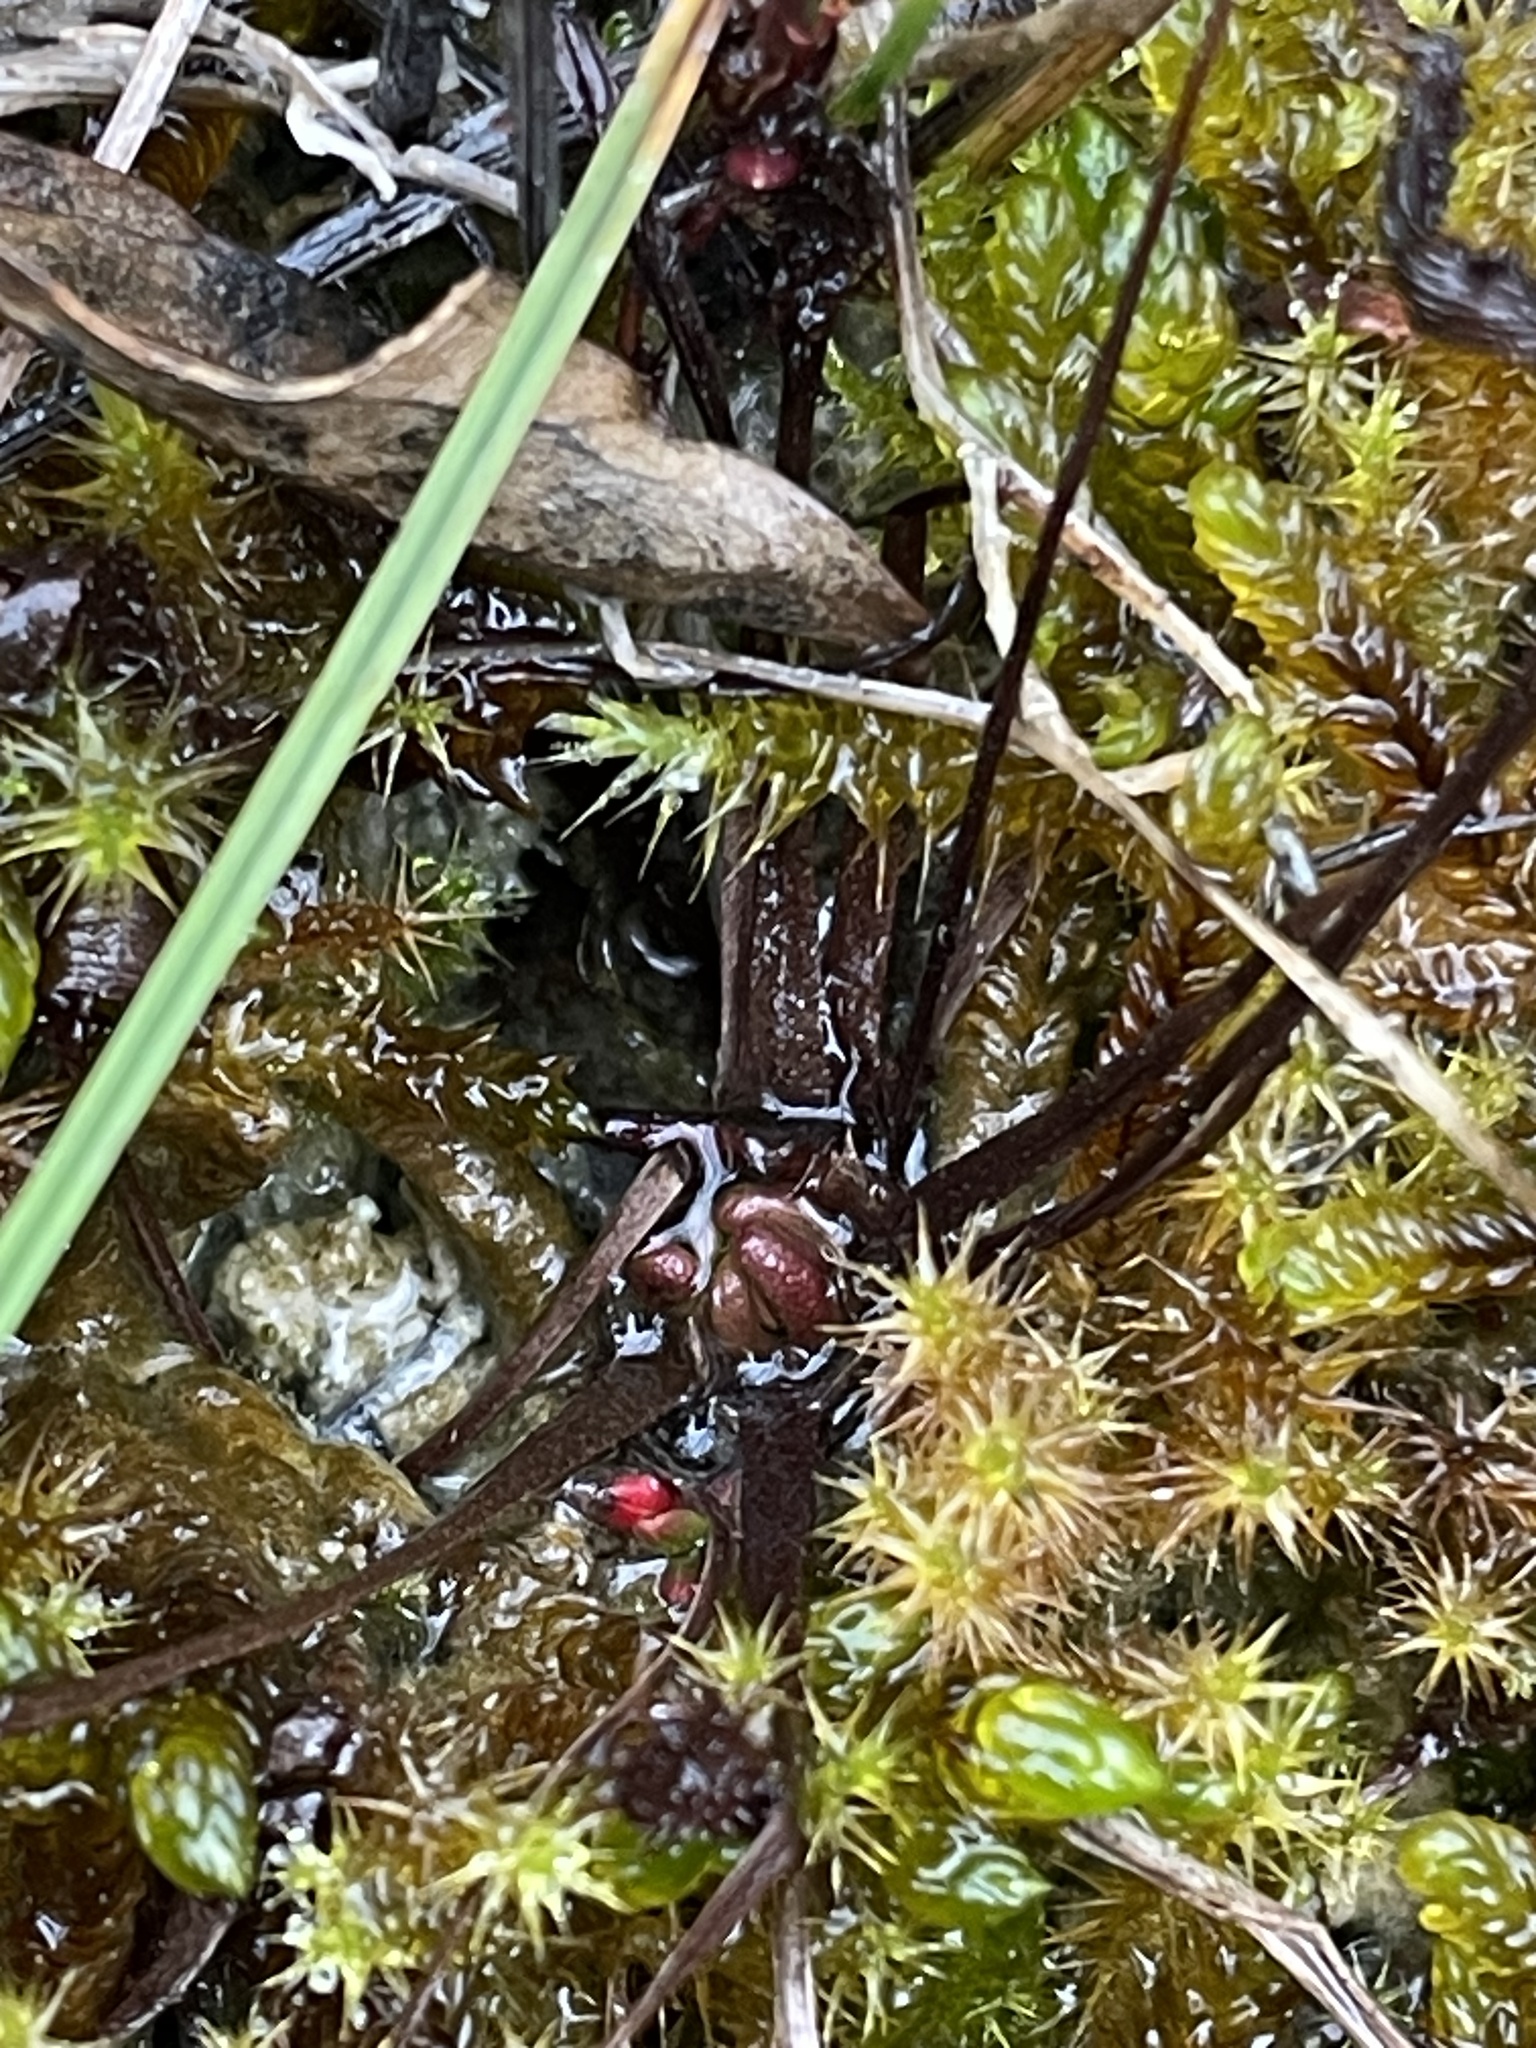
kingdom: Plantae
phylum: Tracheophyta
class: Magnoliopsida
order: Caryophyllales
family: Droseraceae
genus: Drosera
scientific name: Drosera linearis
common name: Linear-leaved sundew
